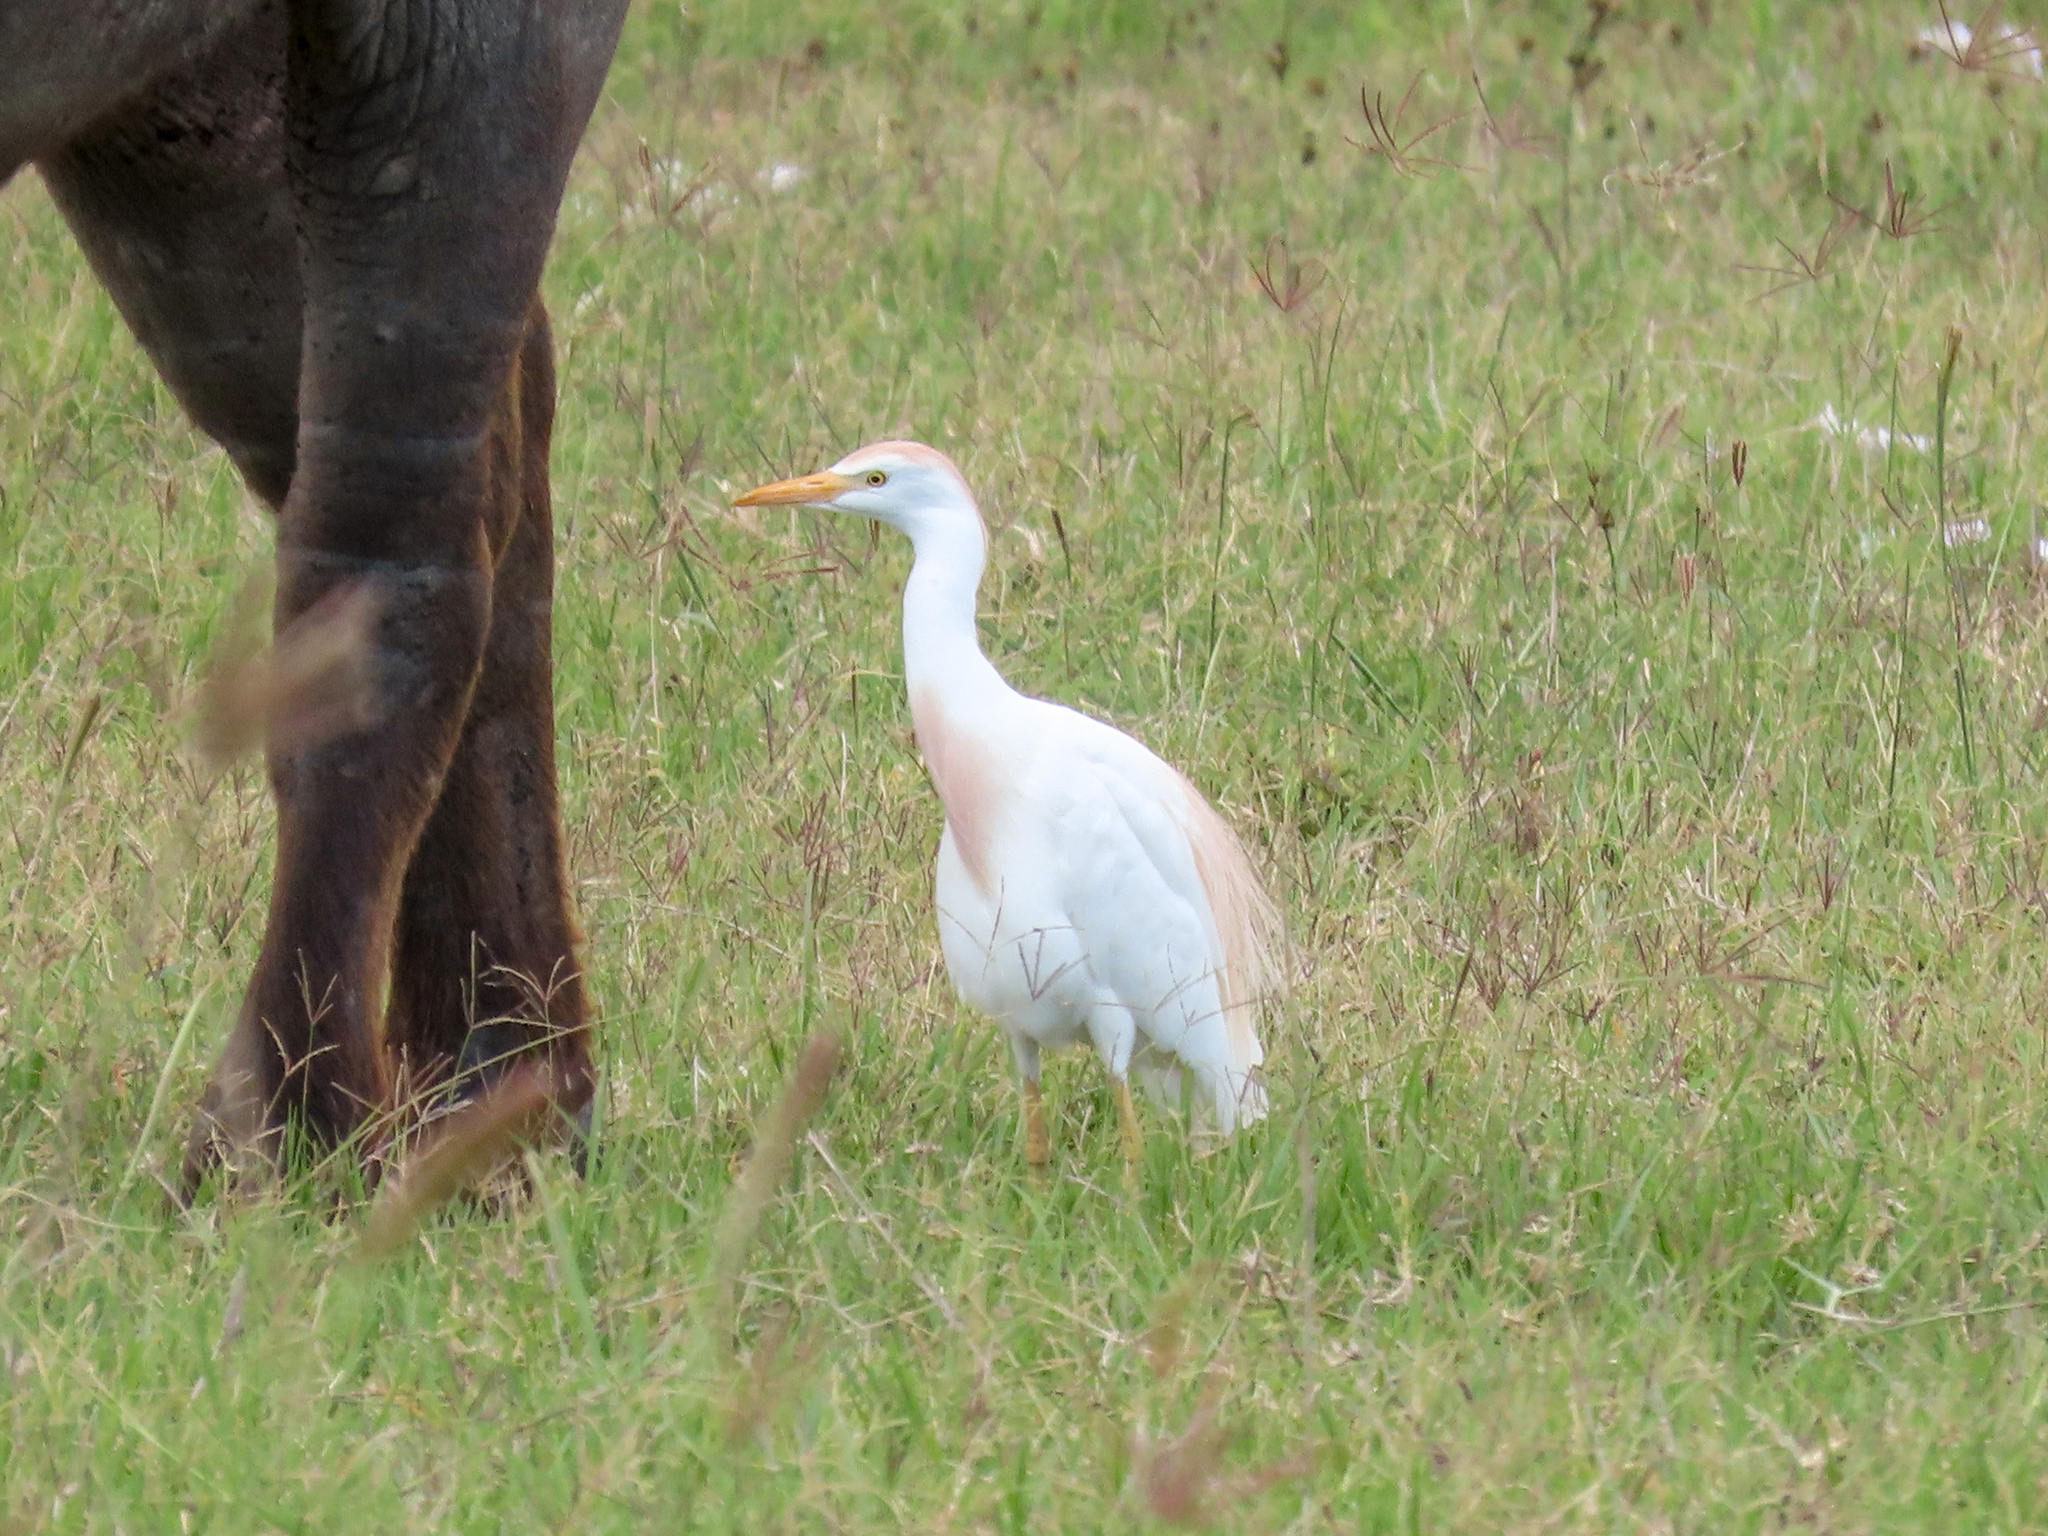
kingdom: Animalia
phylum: Chordata
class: Aves
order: Pelecaniformes
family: Ardeidae
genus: Bubulcus
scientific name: Bubulcus ibis
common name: Cattle egret
